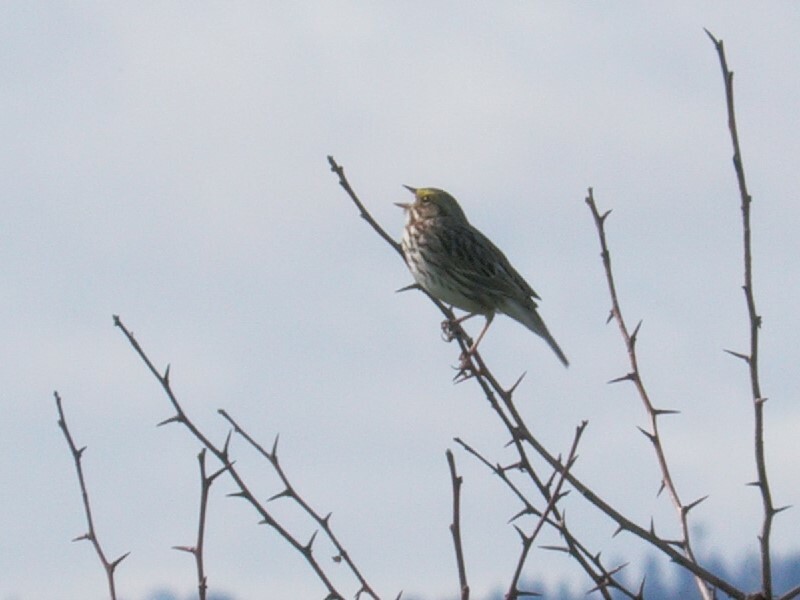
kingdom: Animalia
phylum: Chordata
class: Aves
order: Passeriformes
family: Passerellidae
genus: Passerculus
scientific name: Passerculus sandwichensis
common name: Savannah sparrow
